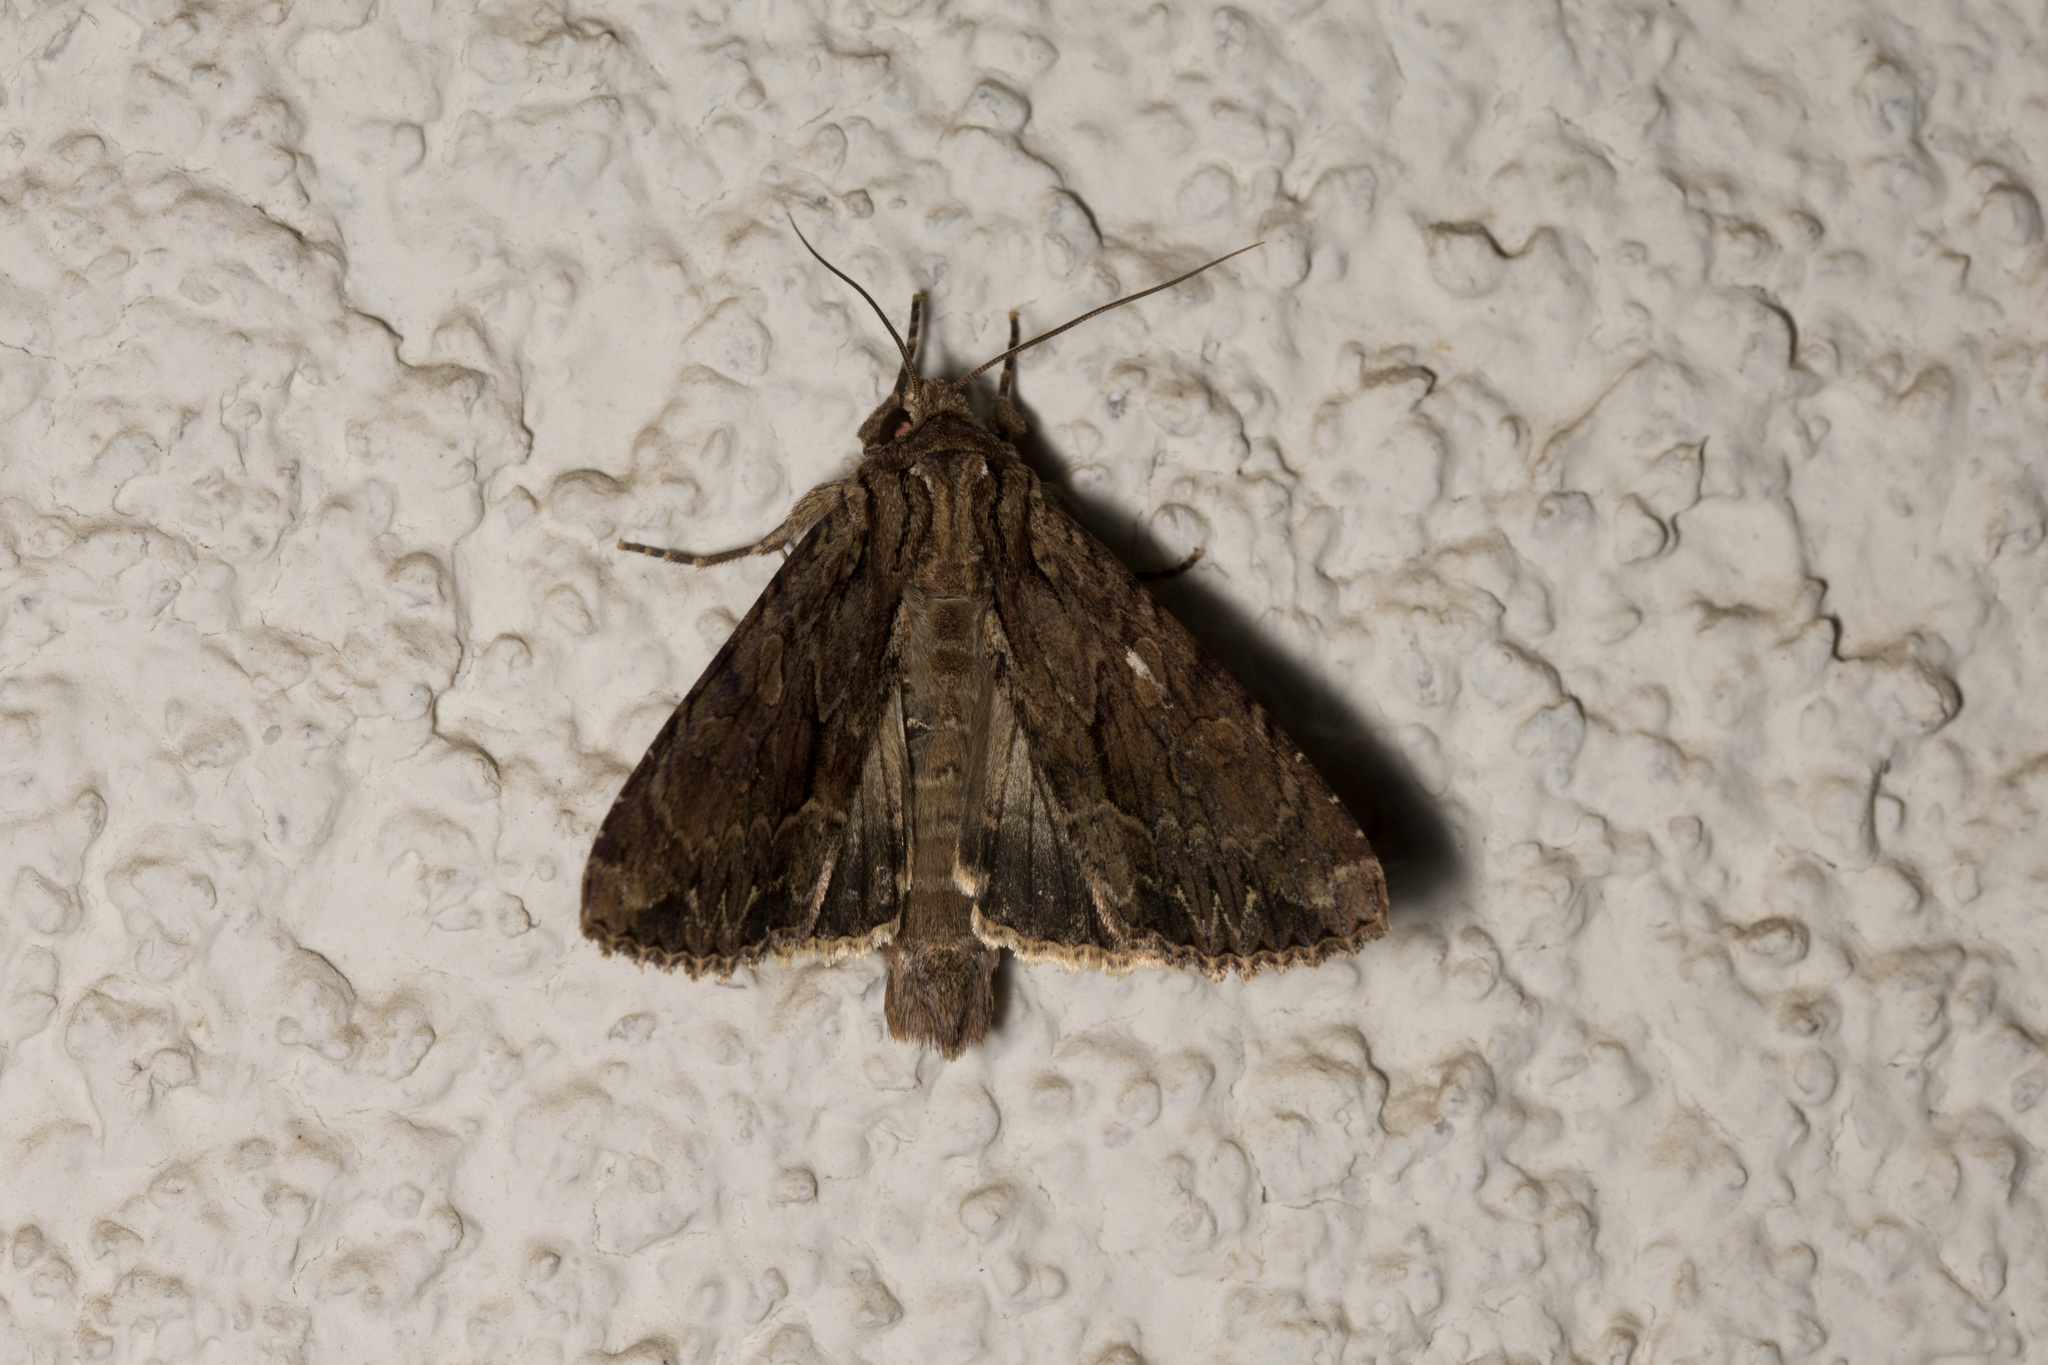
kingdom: Animalia
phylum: Arthropoda
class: Insecta
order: Lepidoptera
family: Noctuidae
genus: Apamea
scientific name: Apamea monoglypha
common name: Dark arches
